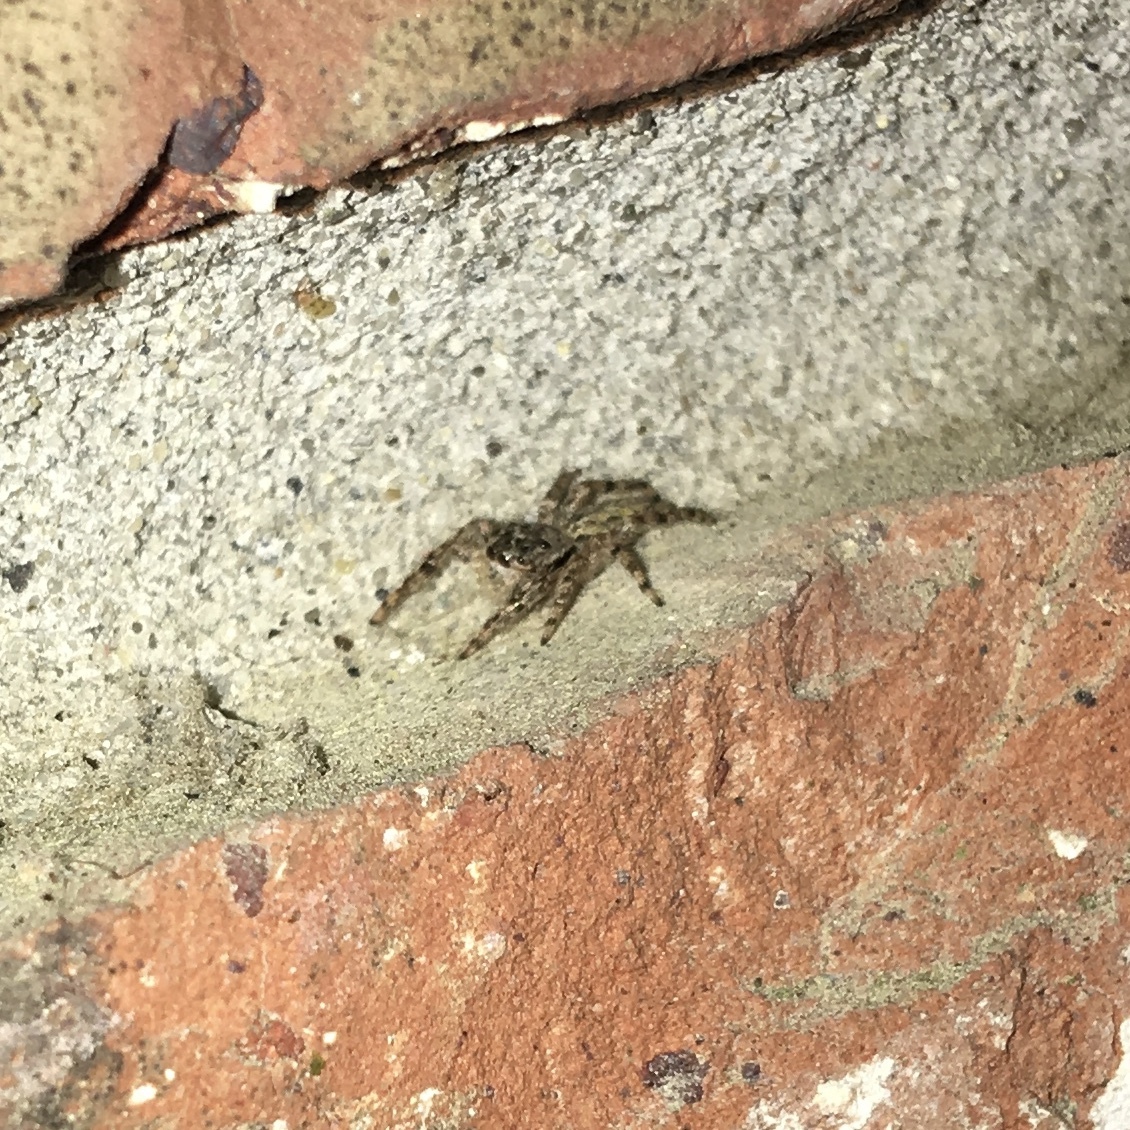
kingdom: Animalia
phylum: Arthropoda
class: Arachnida
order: Araneae
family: Salticidae
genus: Platycryptus
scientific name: Platycryptus undatus
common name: Tan jumping spider
